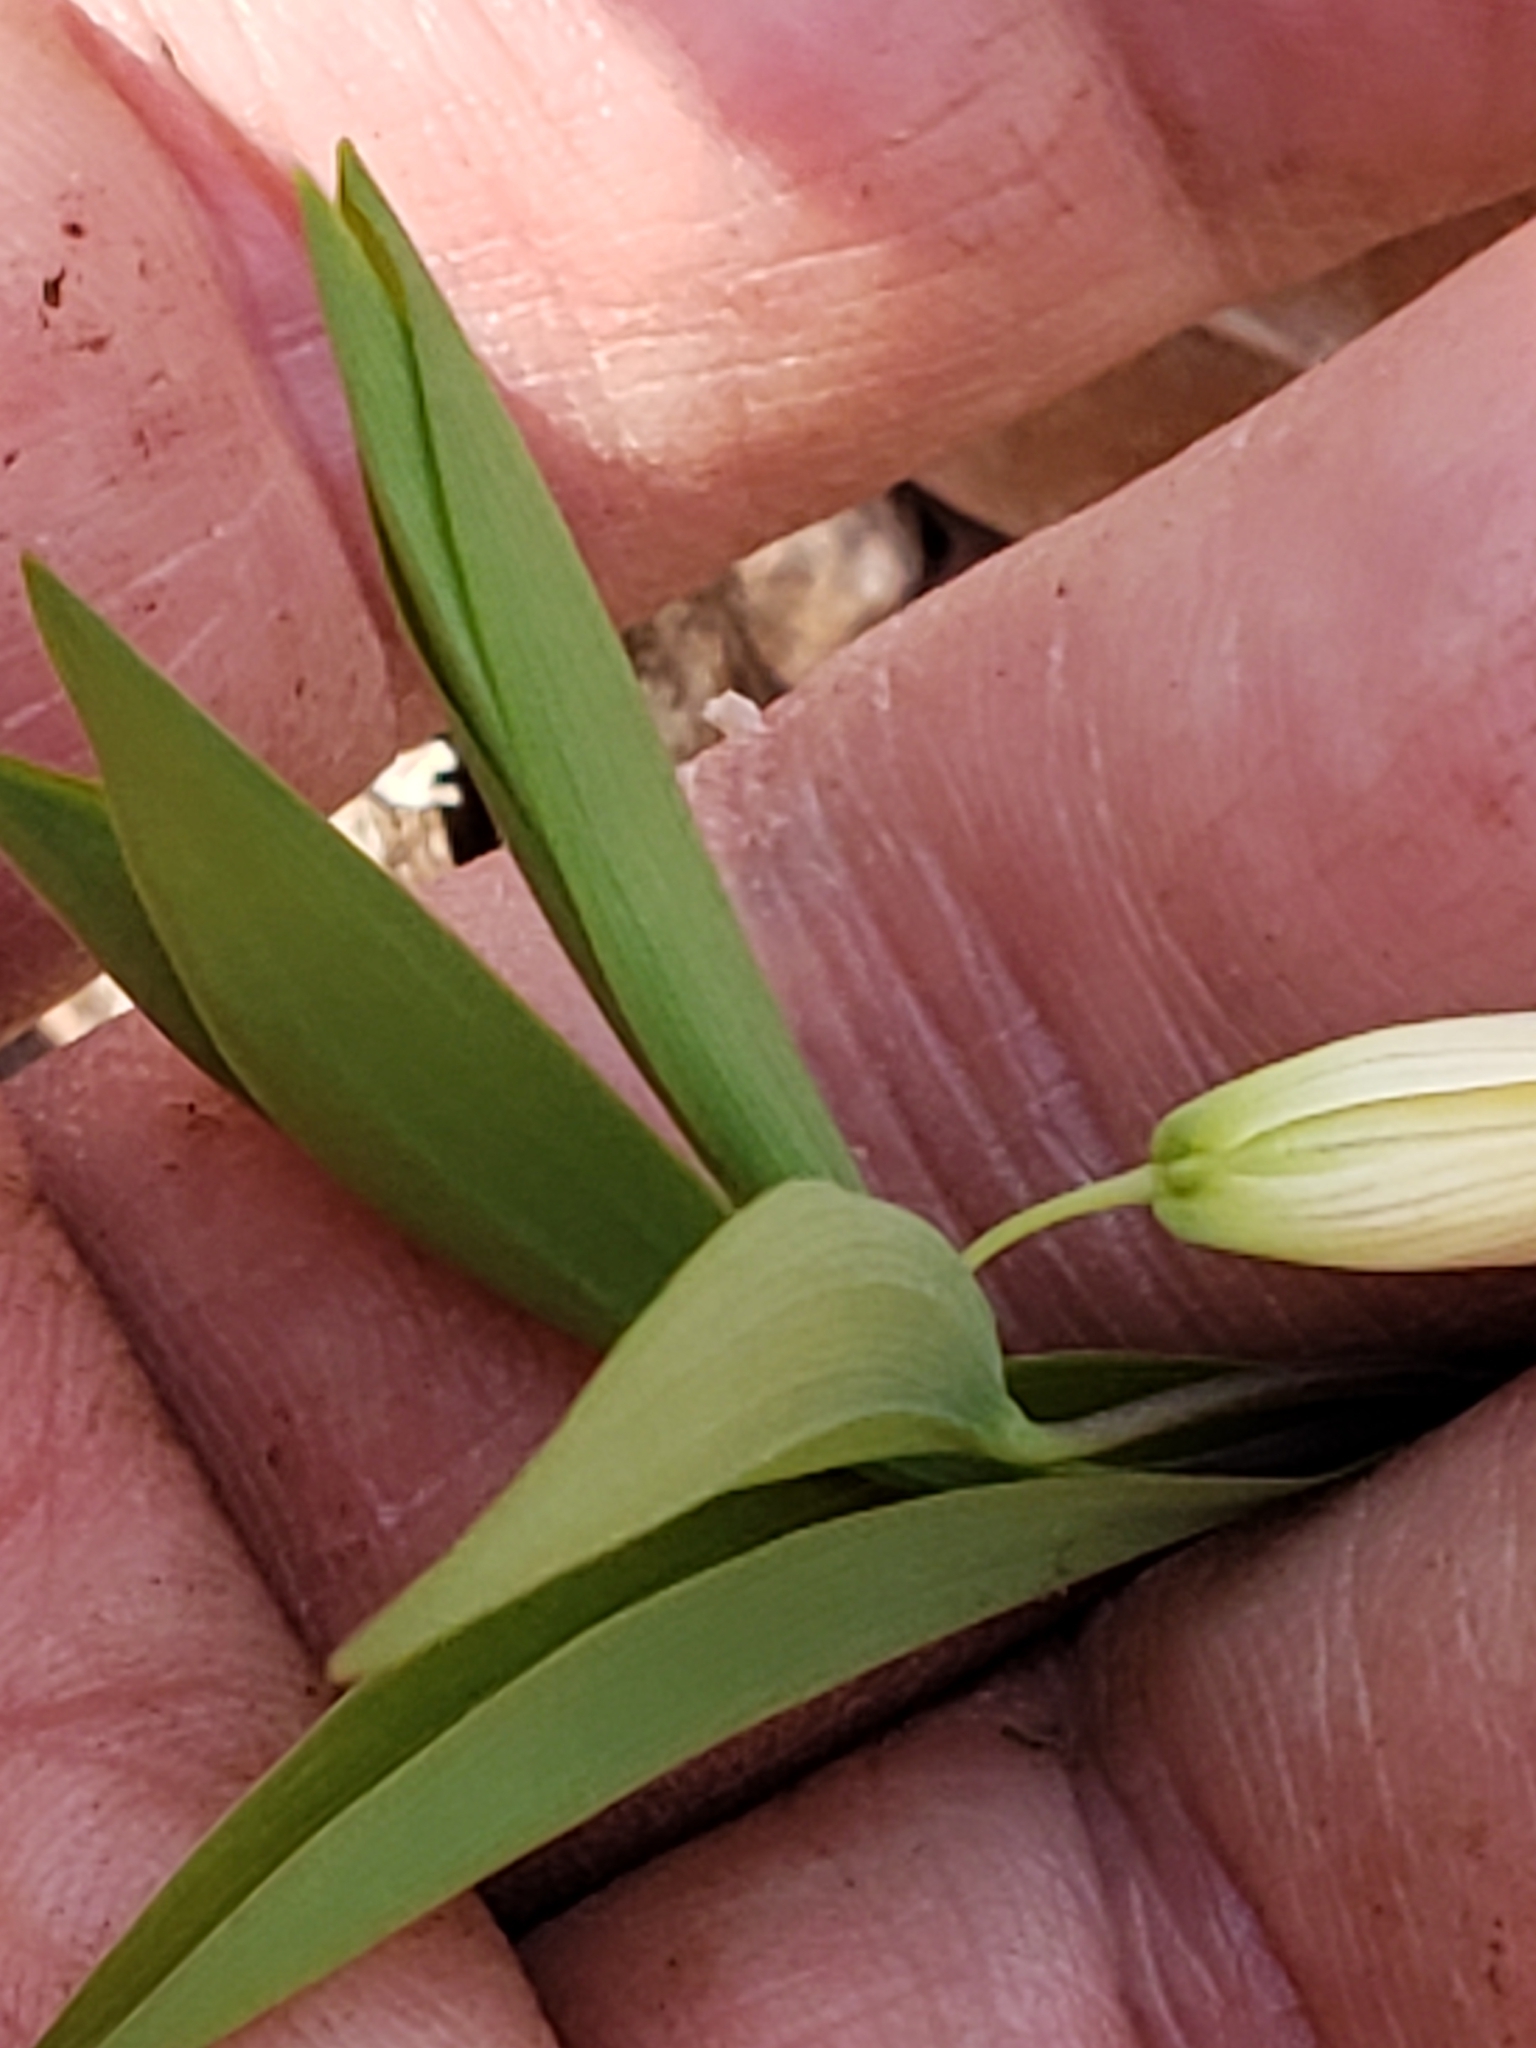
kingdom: Plantae
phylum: Tracheophyta
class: Liliopsida
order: Liliales
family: Colchicaceae
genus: Uvularia
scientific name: Uvularia sessilifolia
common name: Straw-lily
